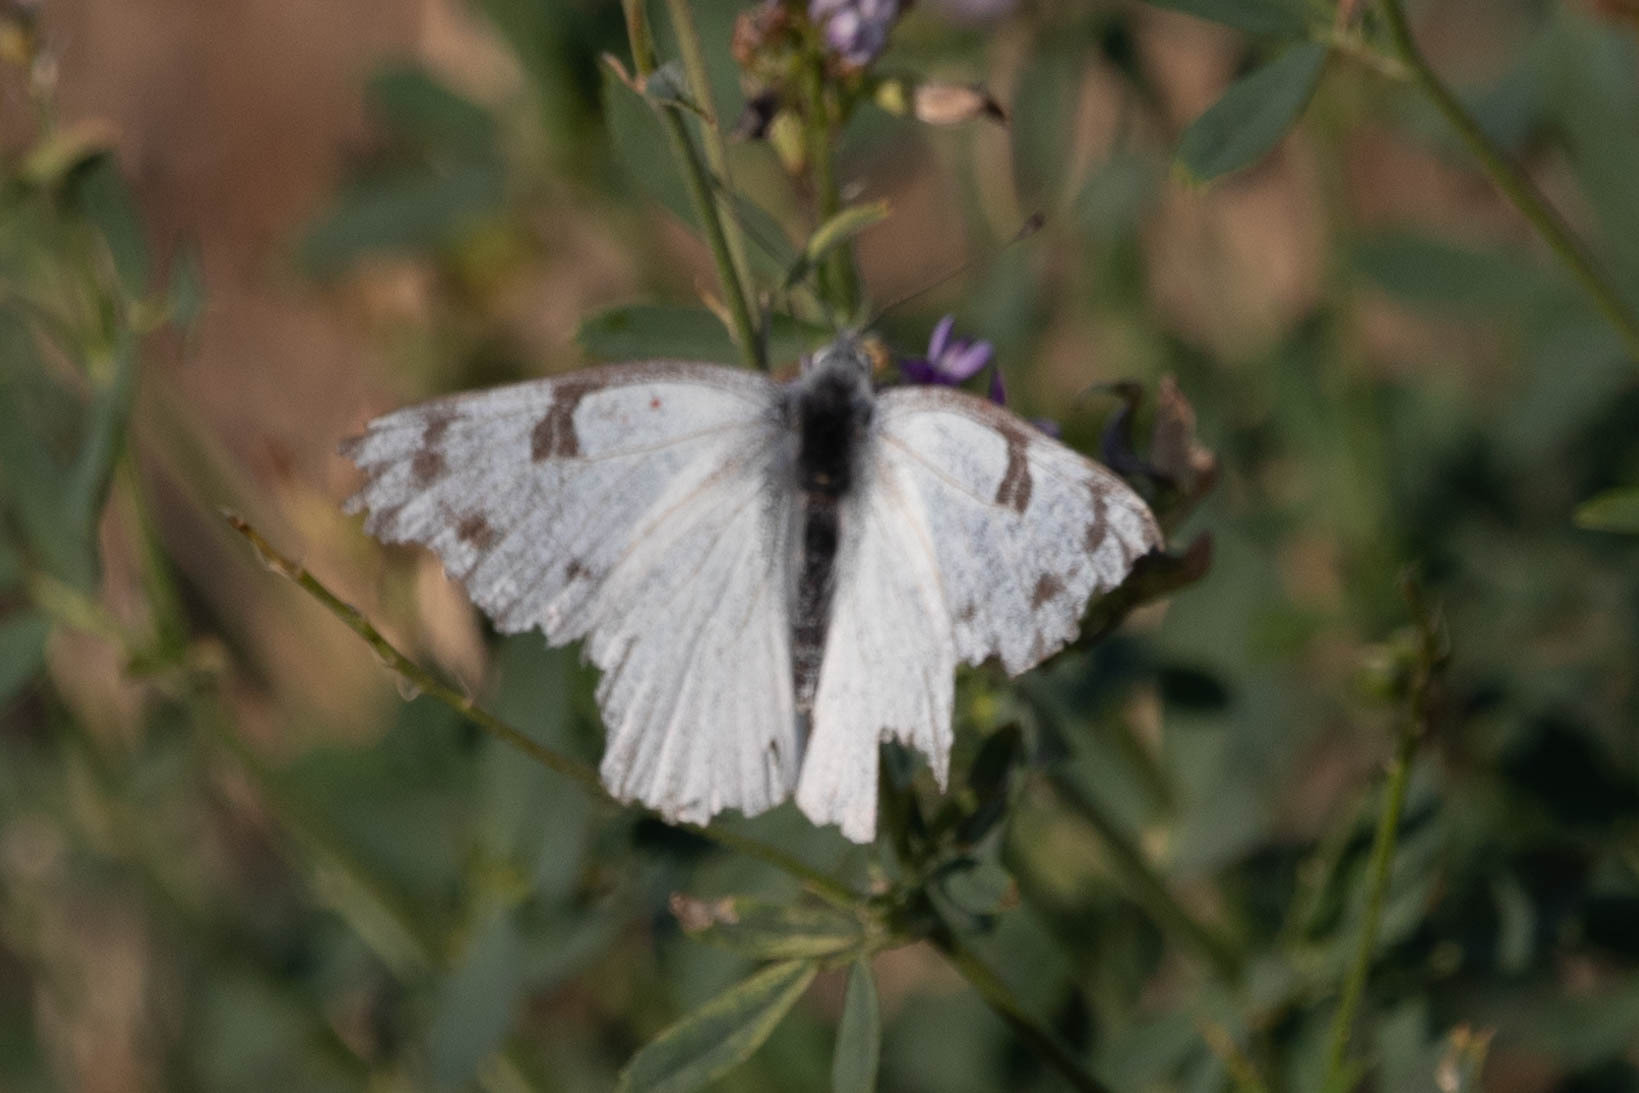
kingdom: Animalia
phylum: Arthropoda
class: Insecta
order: Lepidoptera
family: Pieridae
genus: Pontia
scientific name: Pontia occidentalis
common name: Western white
